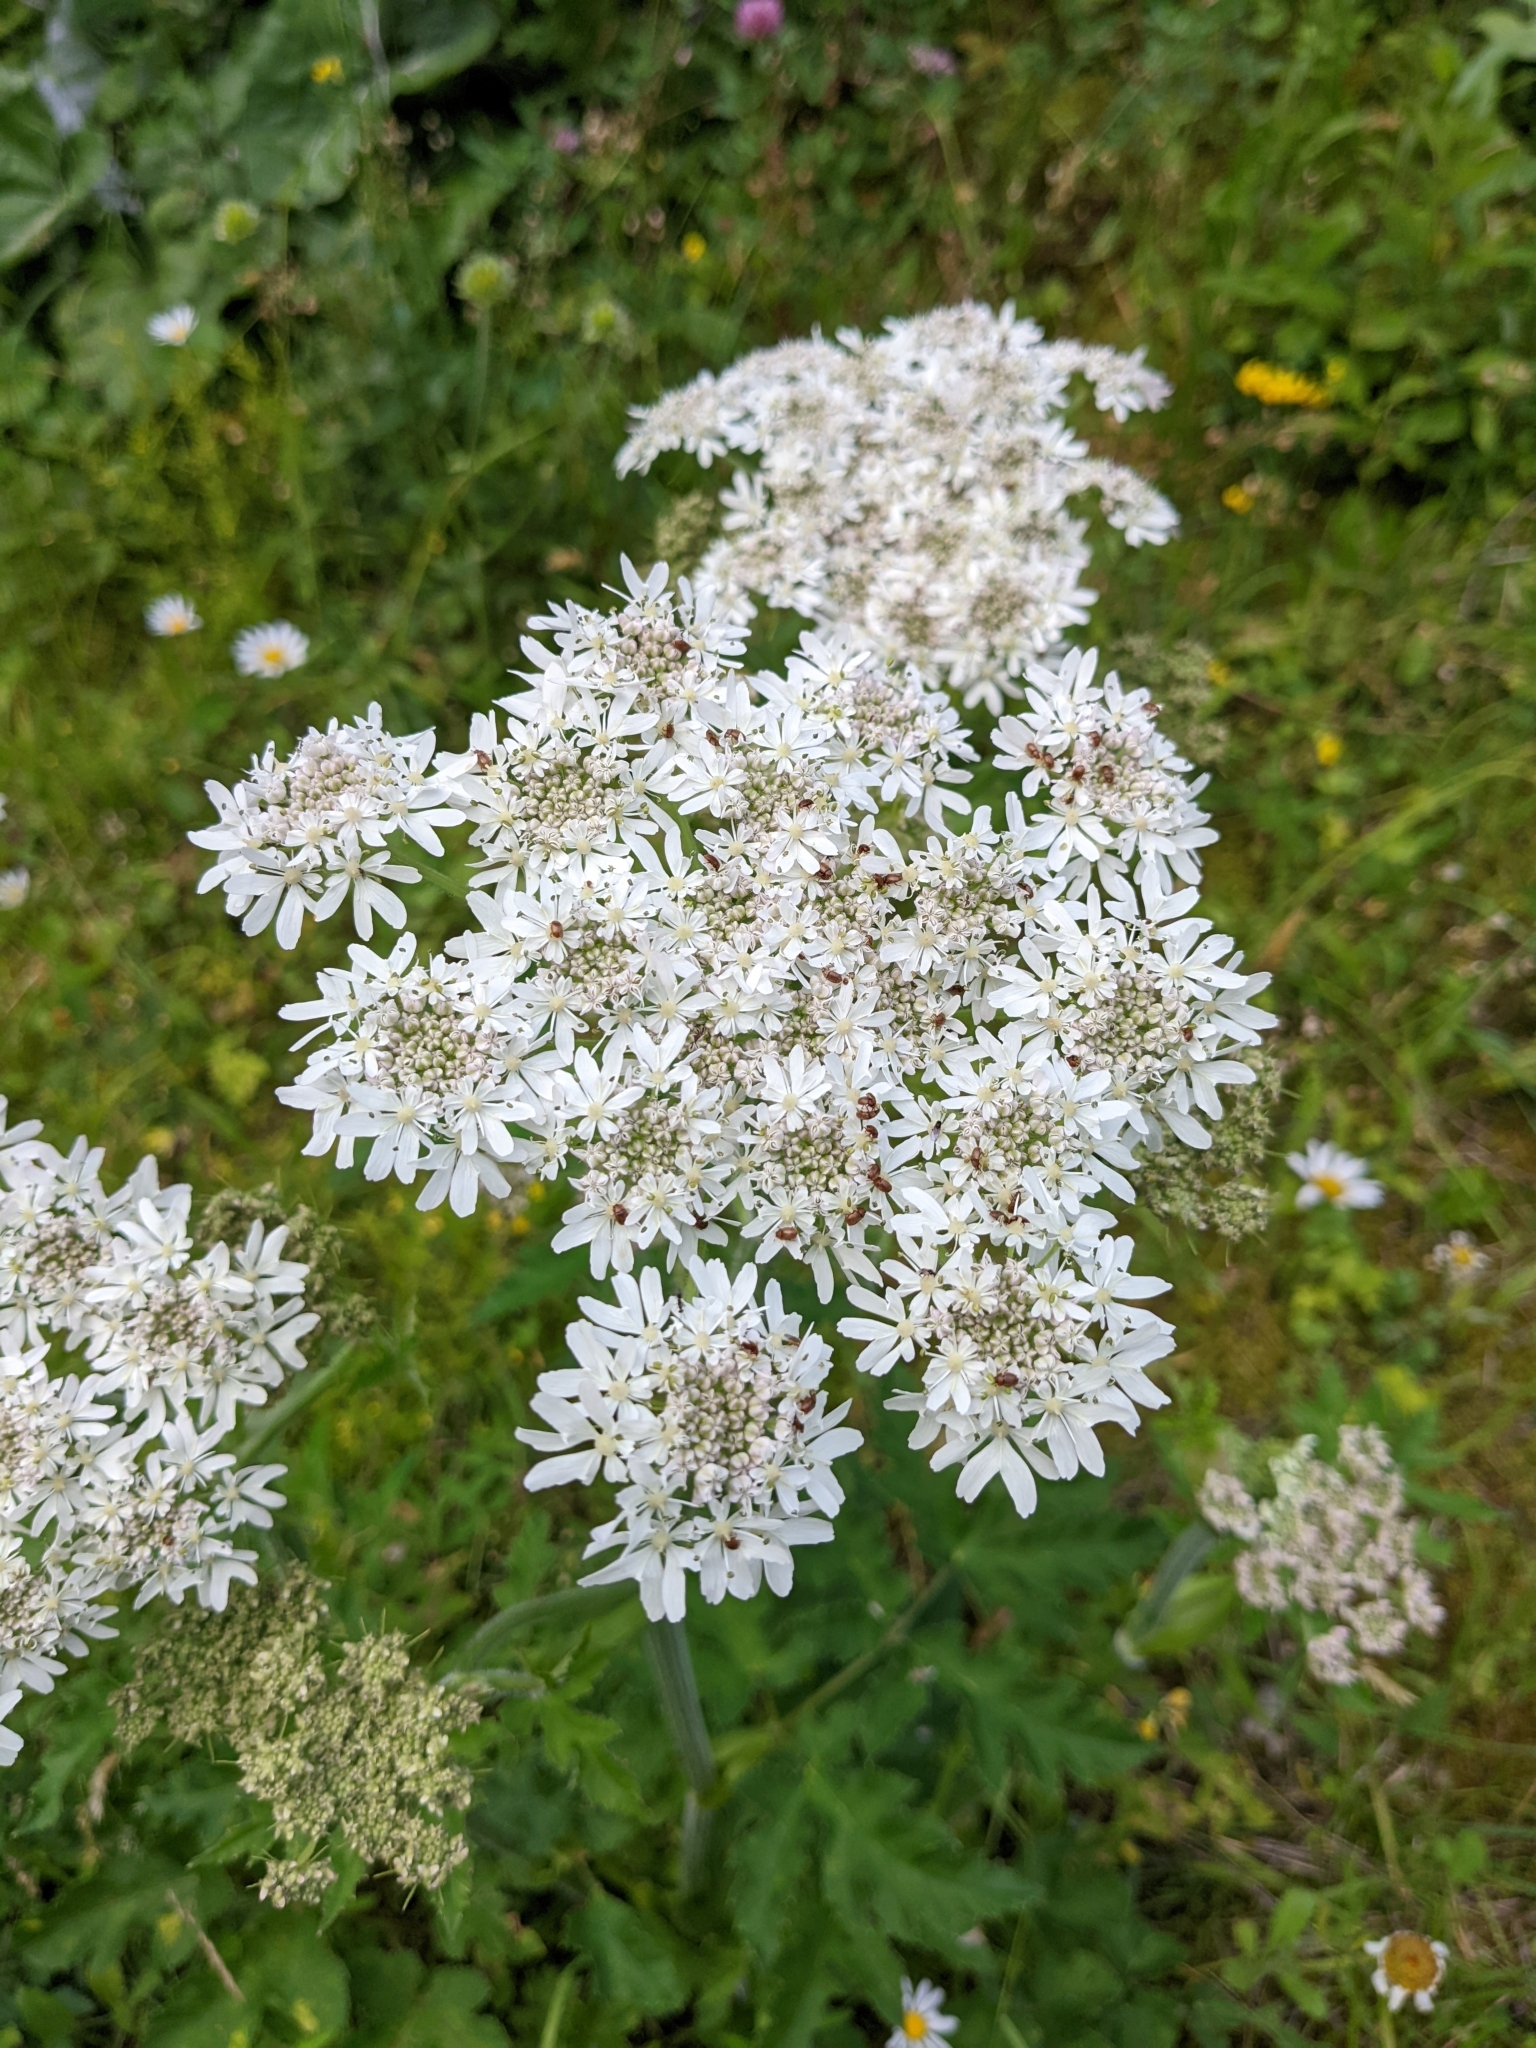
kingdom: Plantae
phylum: Tracheophyta
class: Magnoliopsida
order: Apiales
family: Apiaceae
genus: Heracleum
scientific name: Heracleum sphondylium
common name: Hogweed
